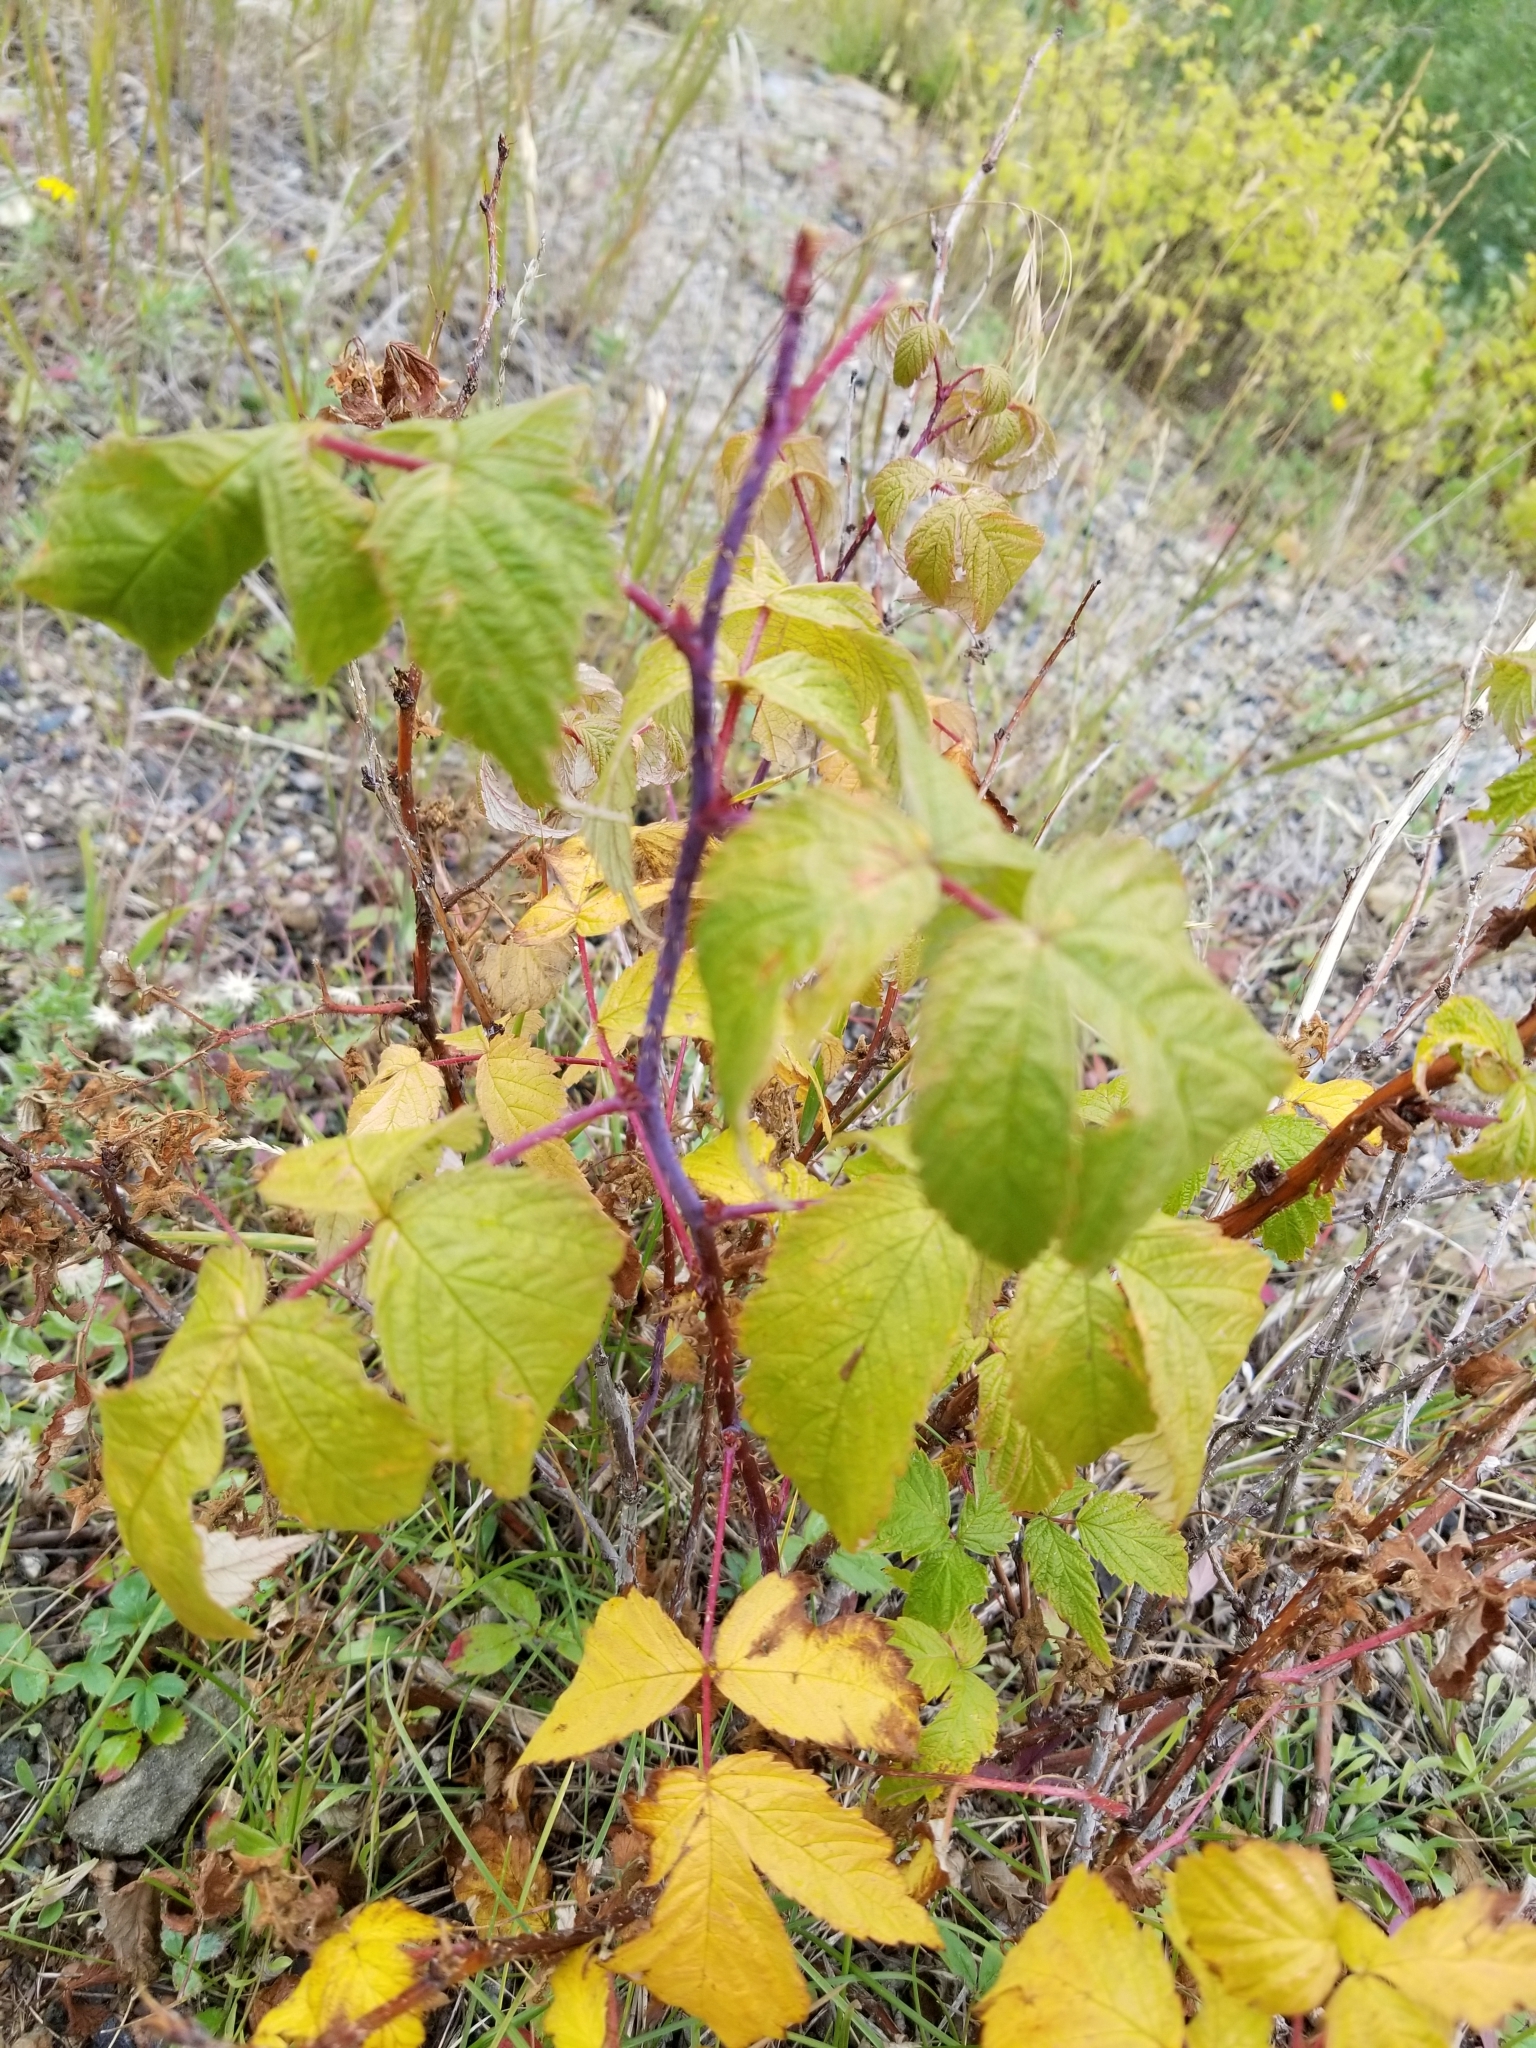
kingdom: Plantae
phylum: Tracheophyta
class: Magnoliopsida
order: Rosales
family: Rosaceae
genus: Rubus
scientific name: Rubus idaeus
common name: Raspberry
